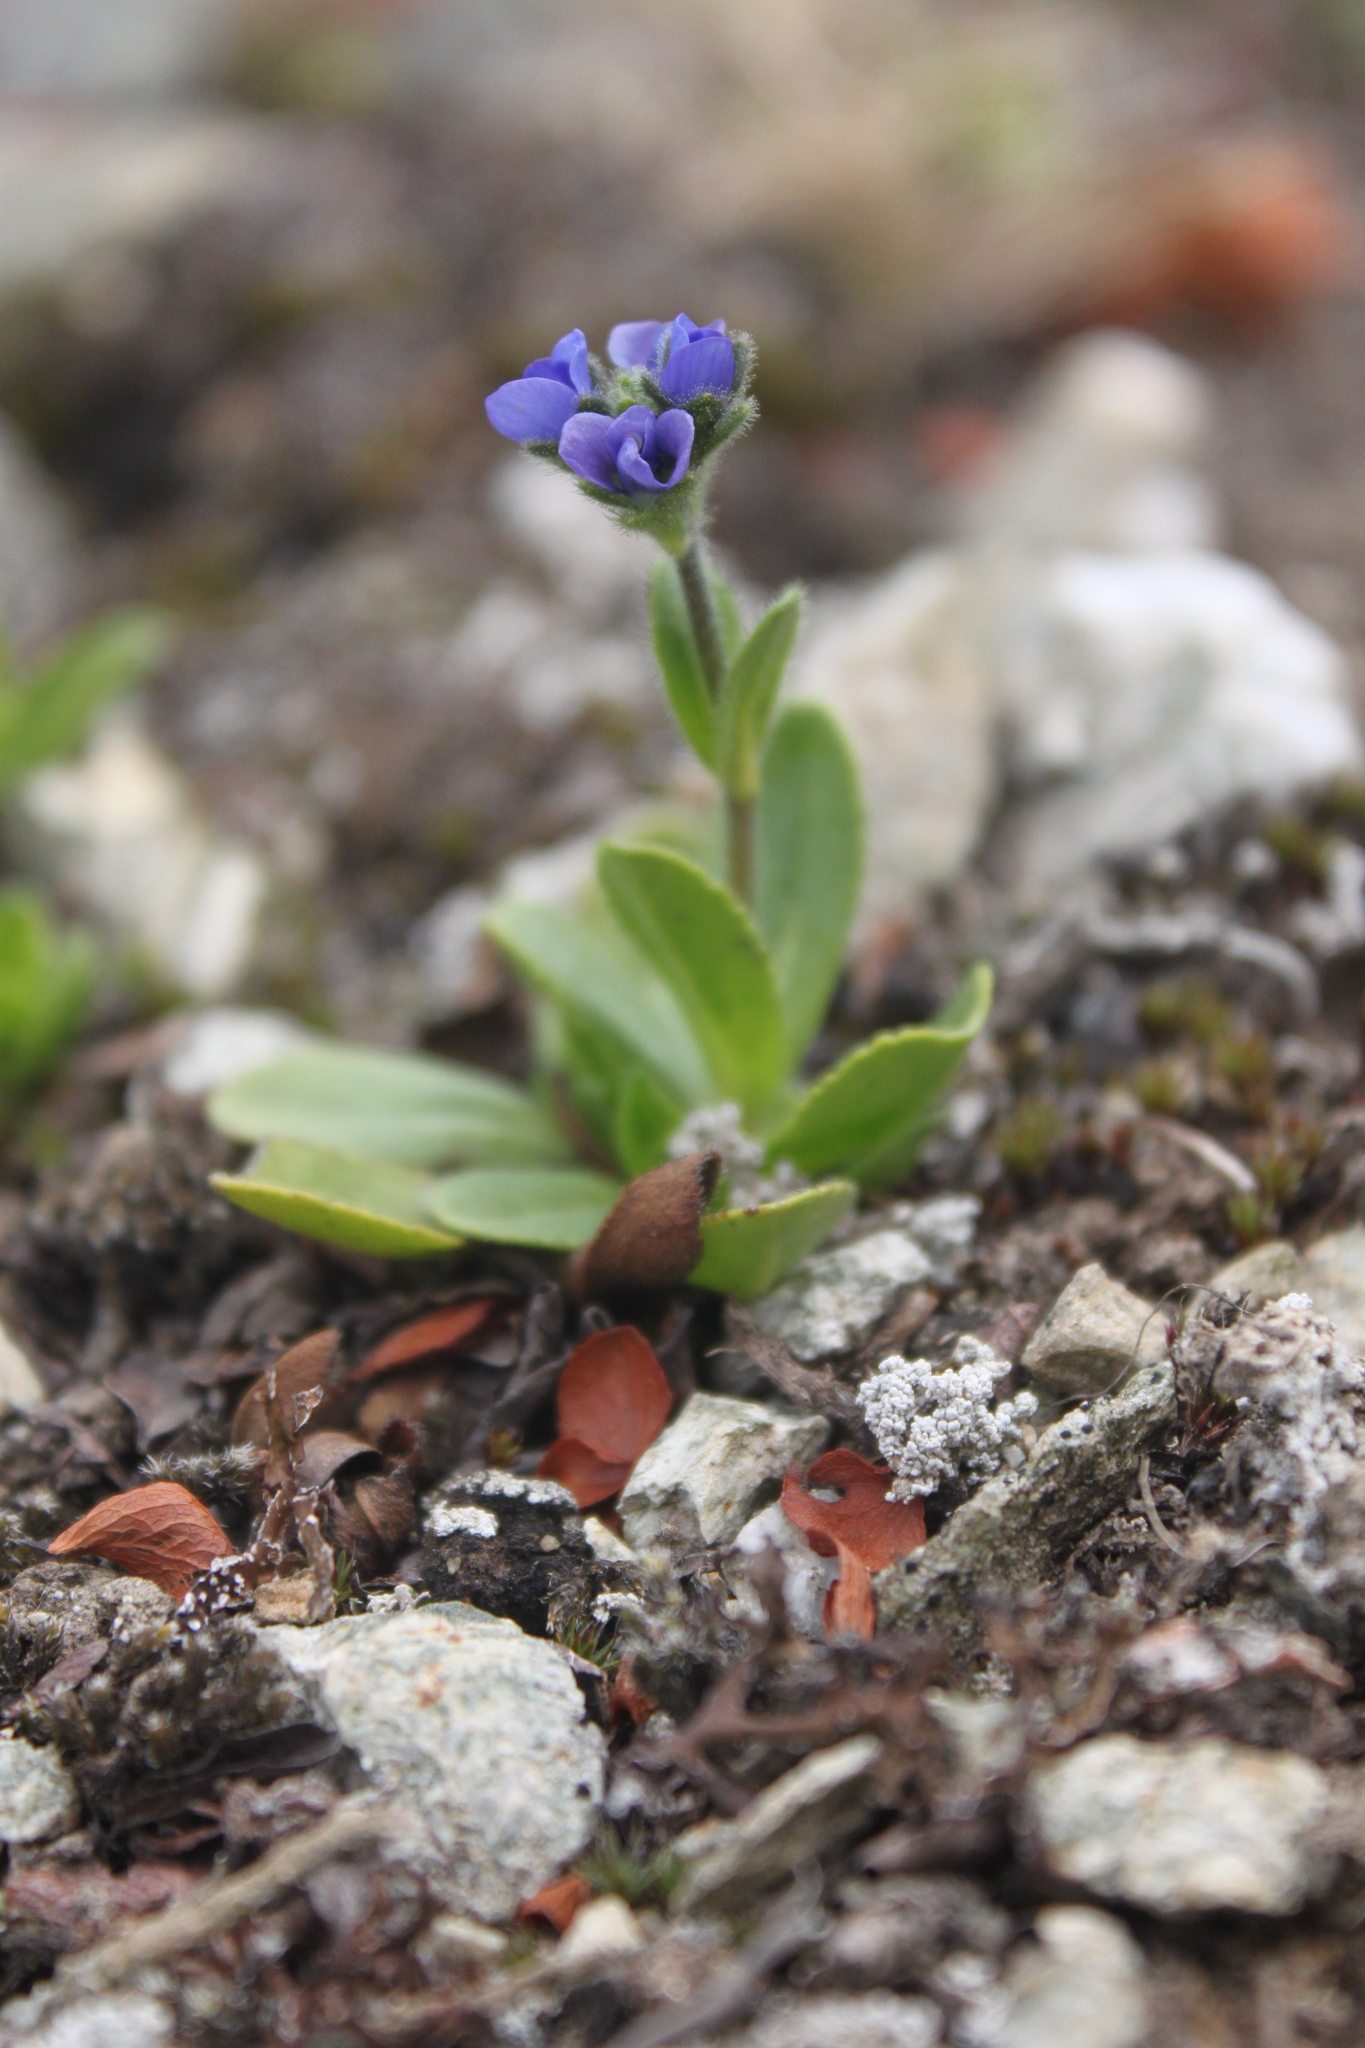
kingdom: Plantae
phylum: Tracheophyta
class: Magnoliopsida
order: Lamiales
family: Plantaginaceae
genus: Veronica
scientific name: Veronica bellidioides
